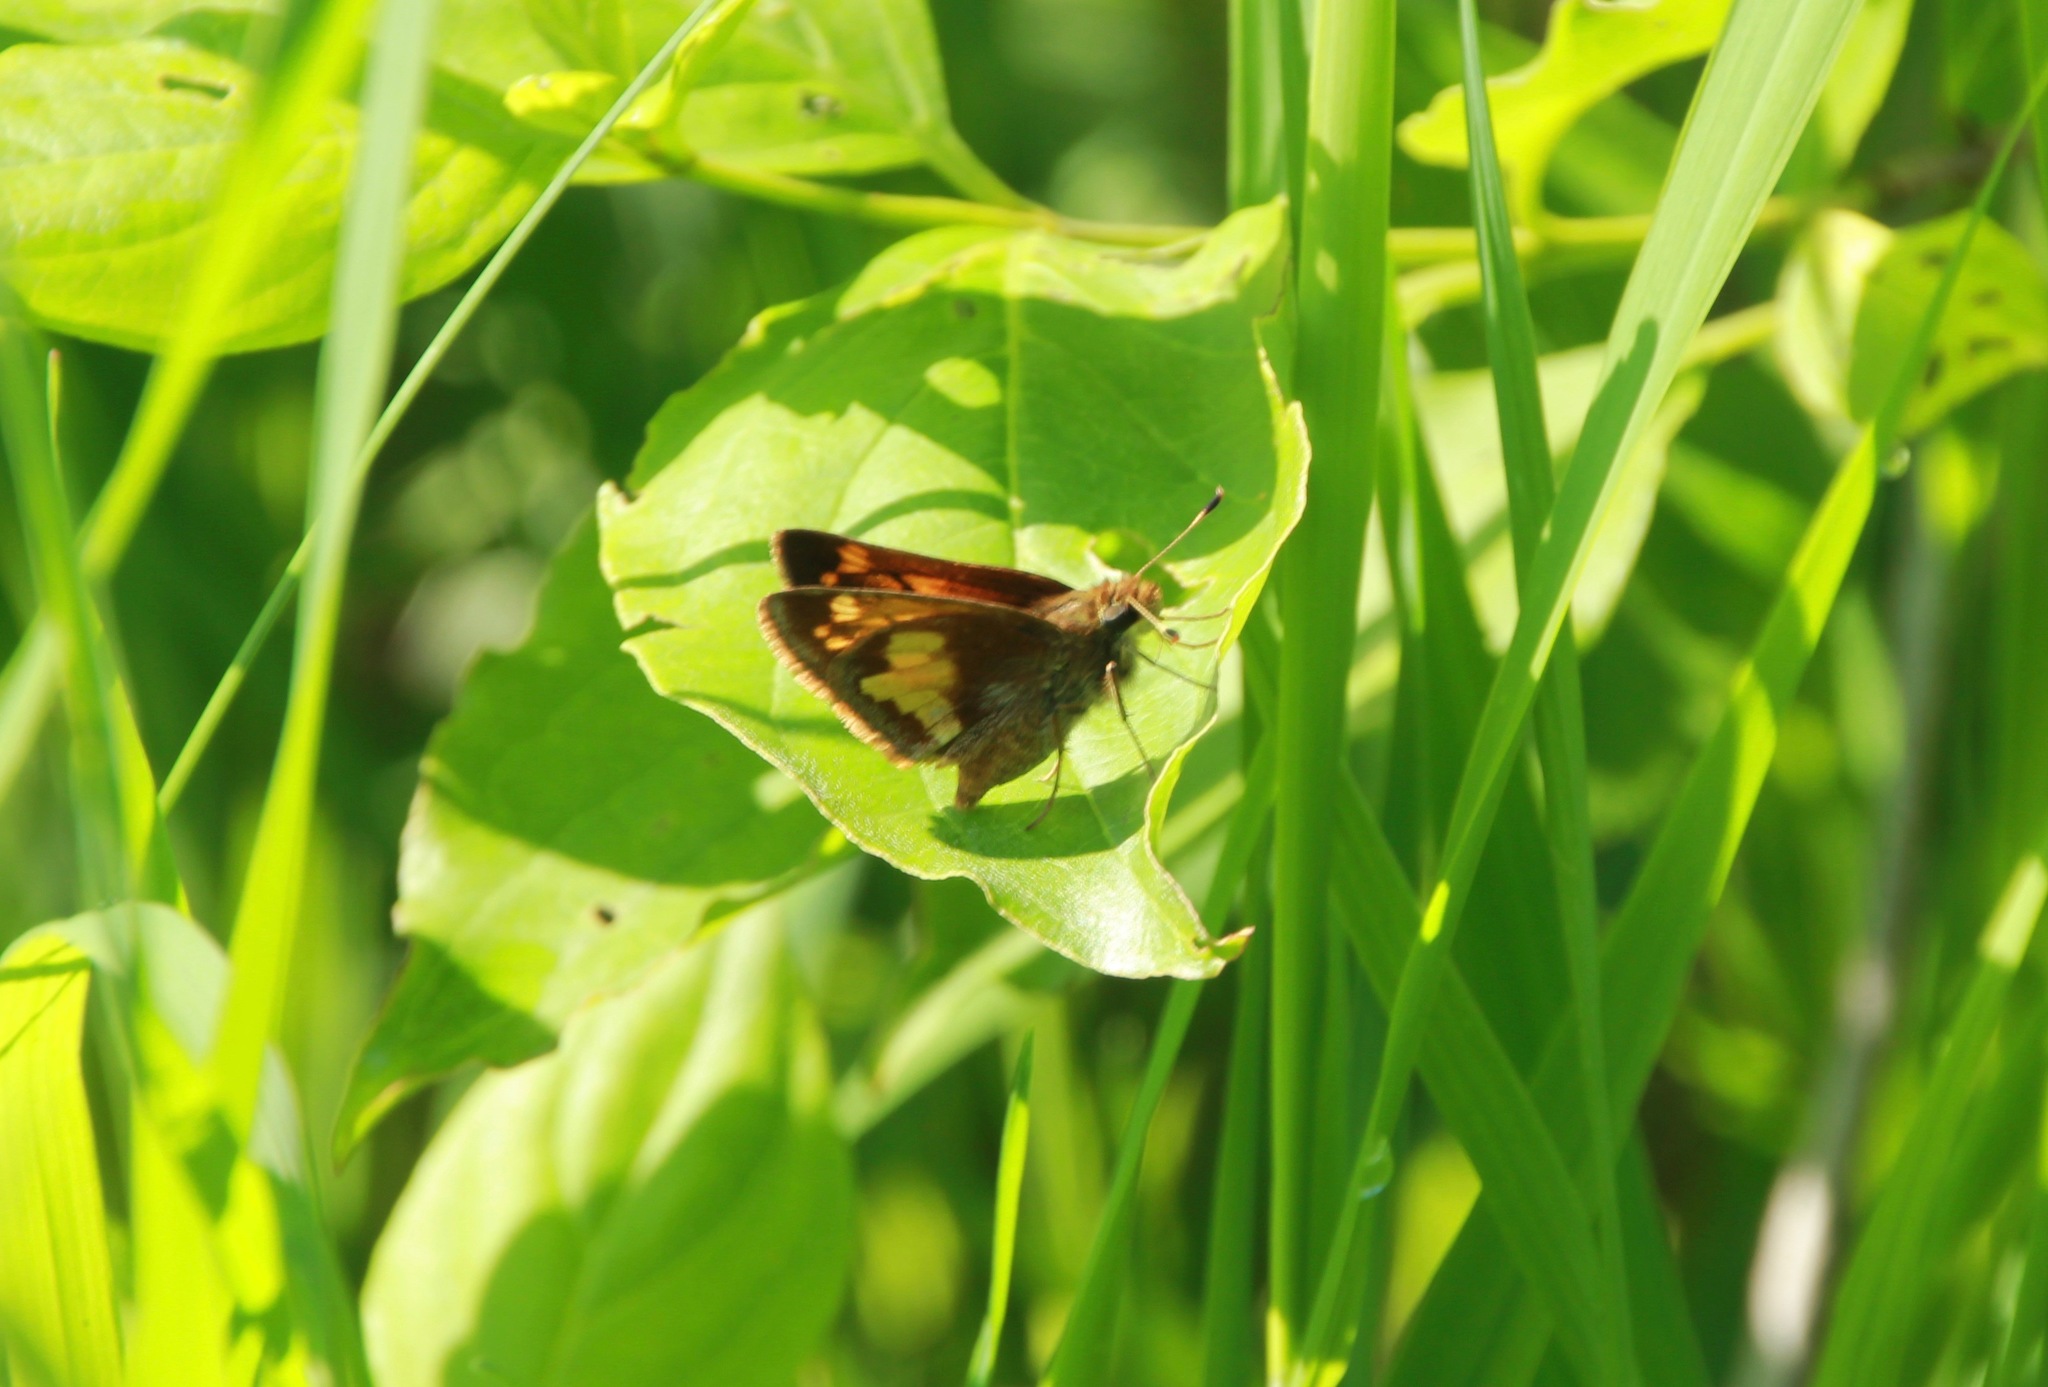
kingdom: Animalia
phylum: Arthropoda
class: Insecta
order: Lepidoptera
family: Hesperiidae
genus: Lon
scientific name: Lon hobomok
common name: Hobomok skipper
